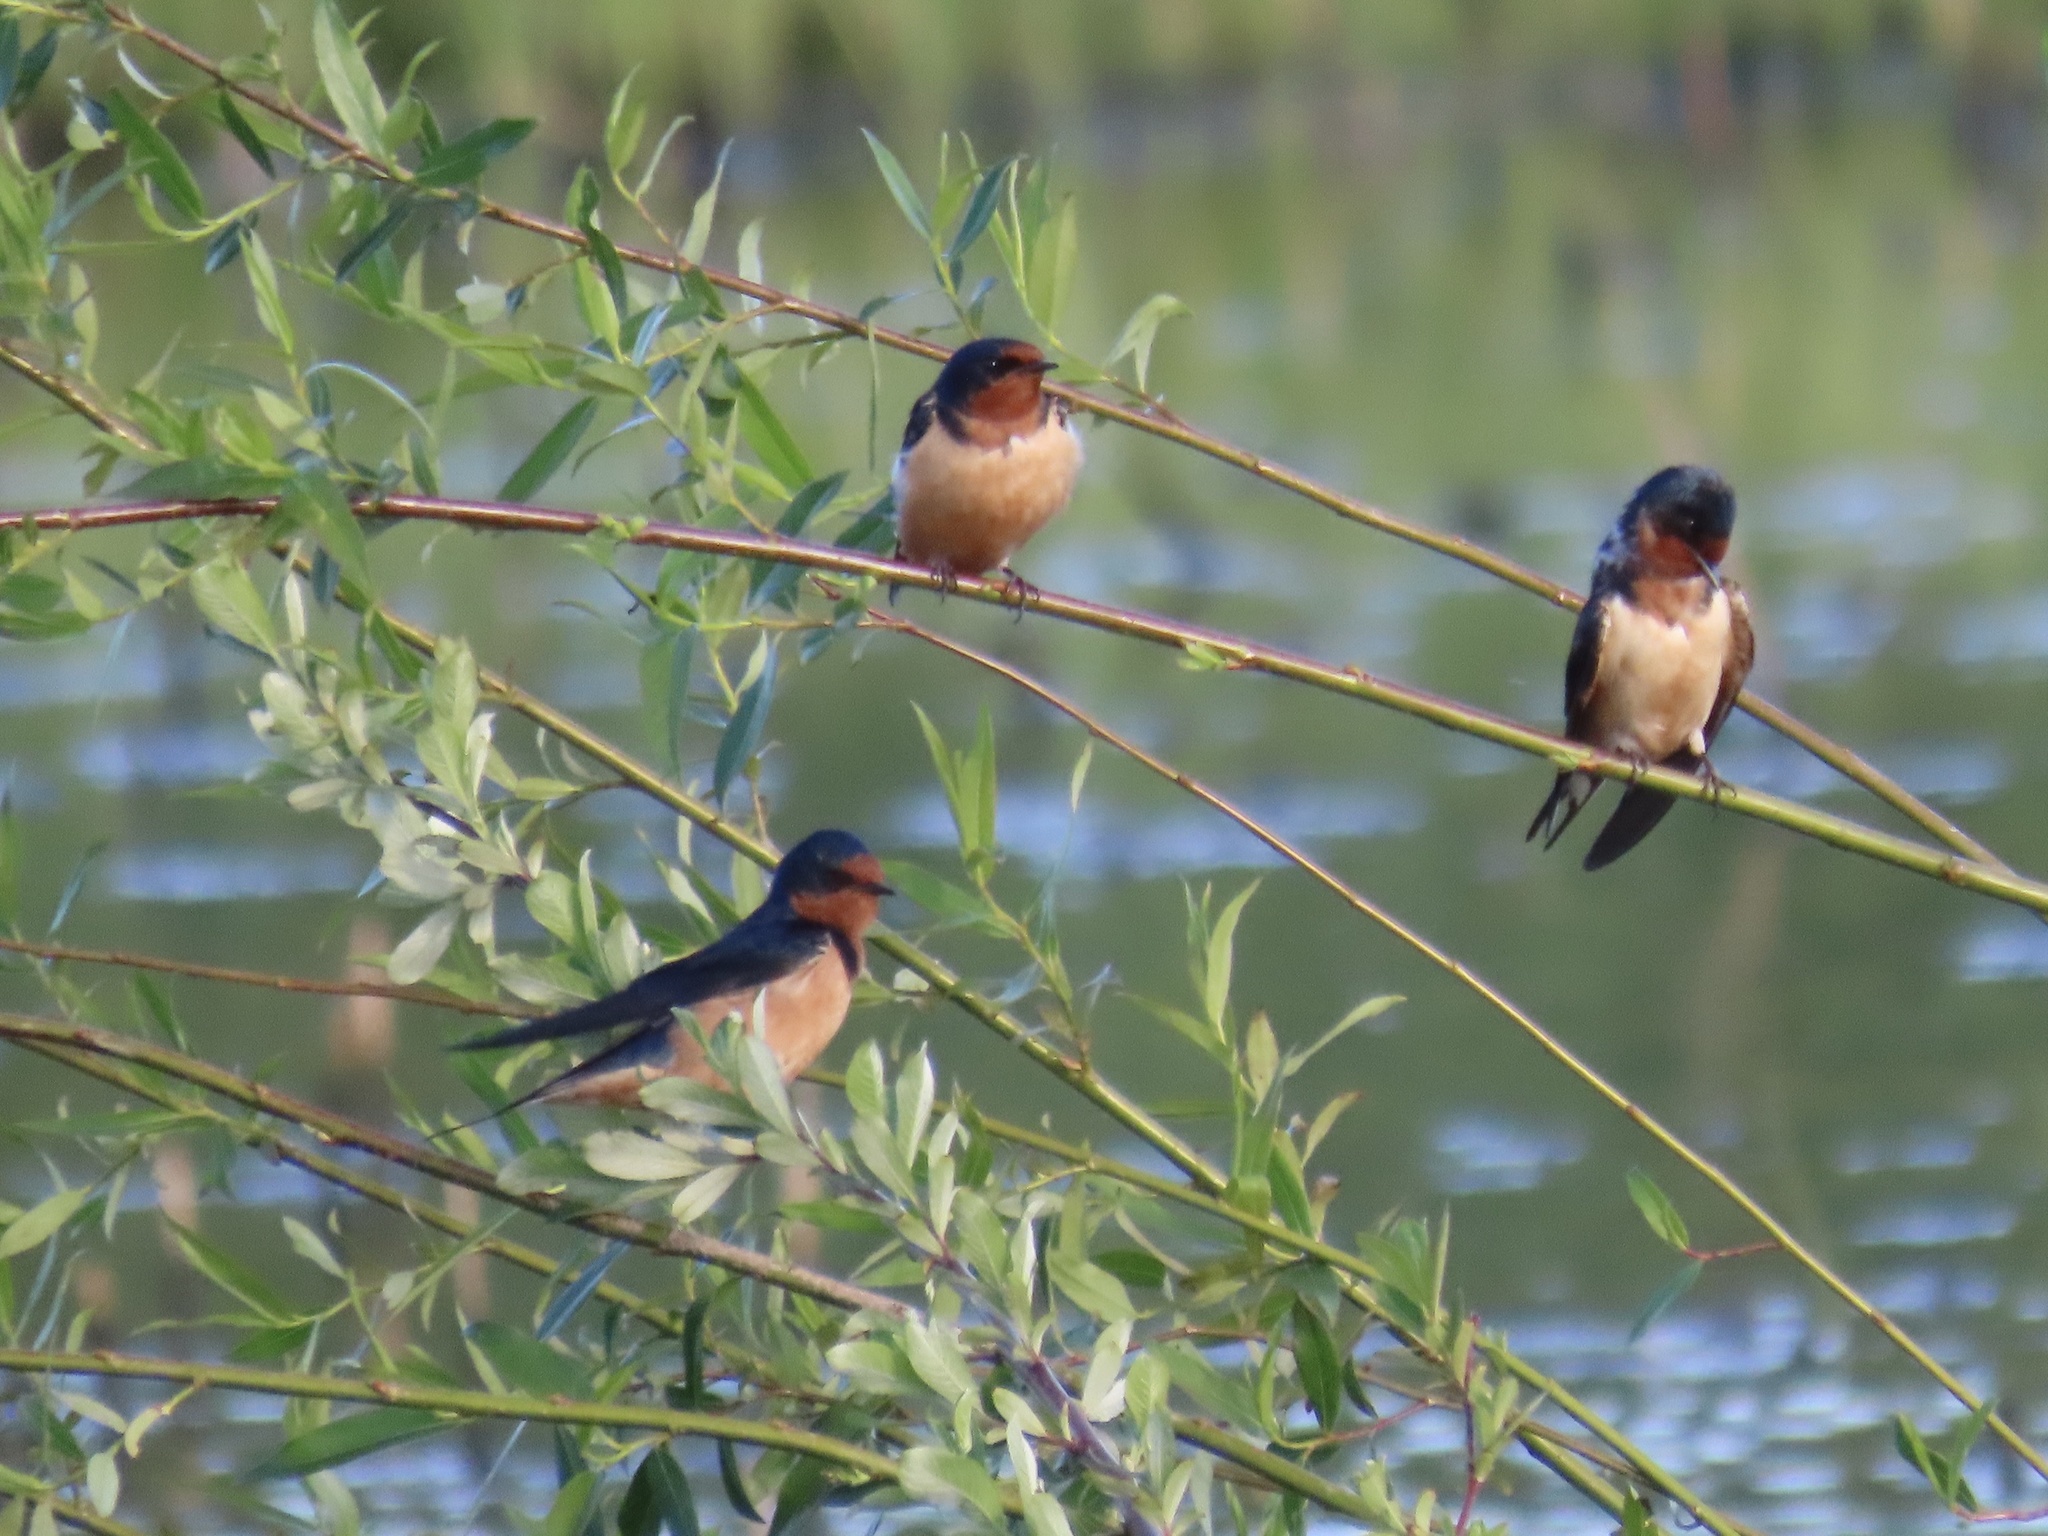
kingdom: Animalia
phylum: Chordata
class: Aves
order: Passeriformes
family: Hirundinidae
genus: Hirundo
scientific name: Hirundo rustica
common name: Barn swallow
